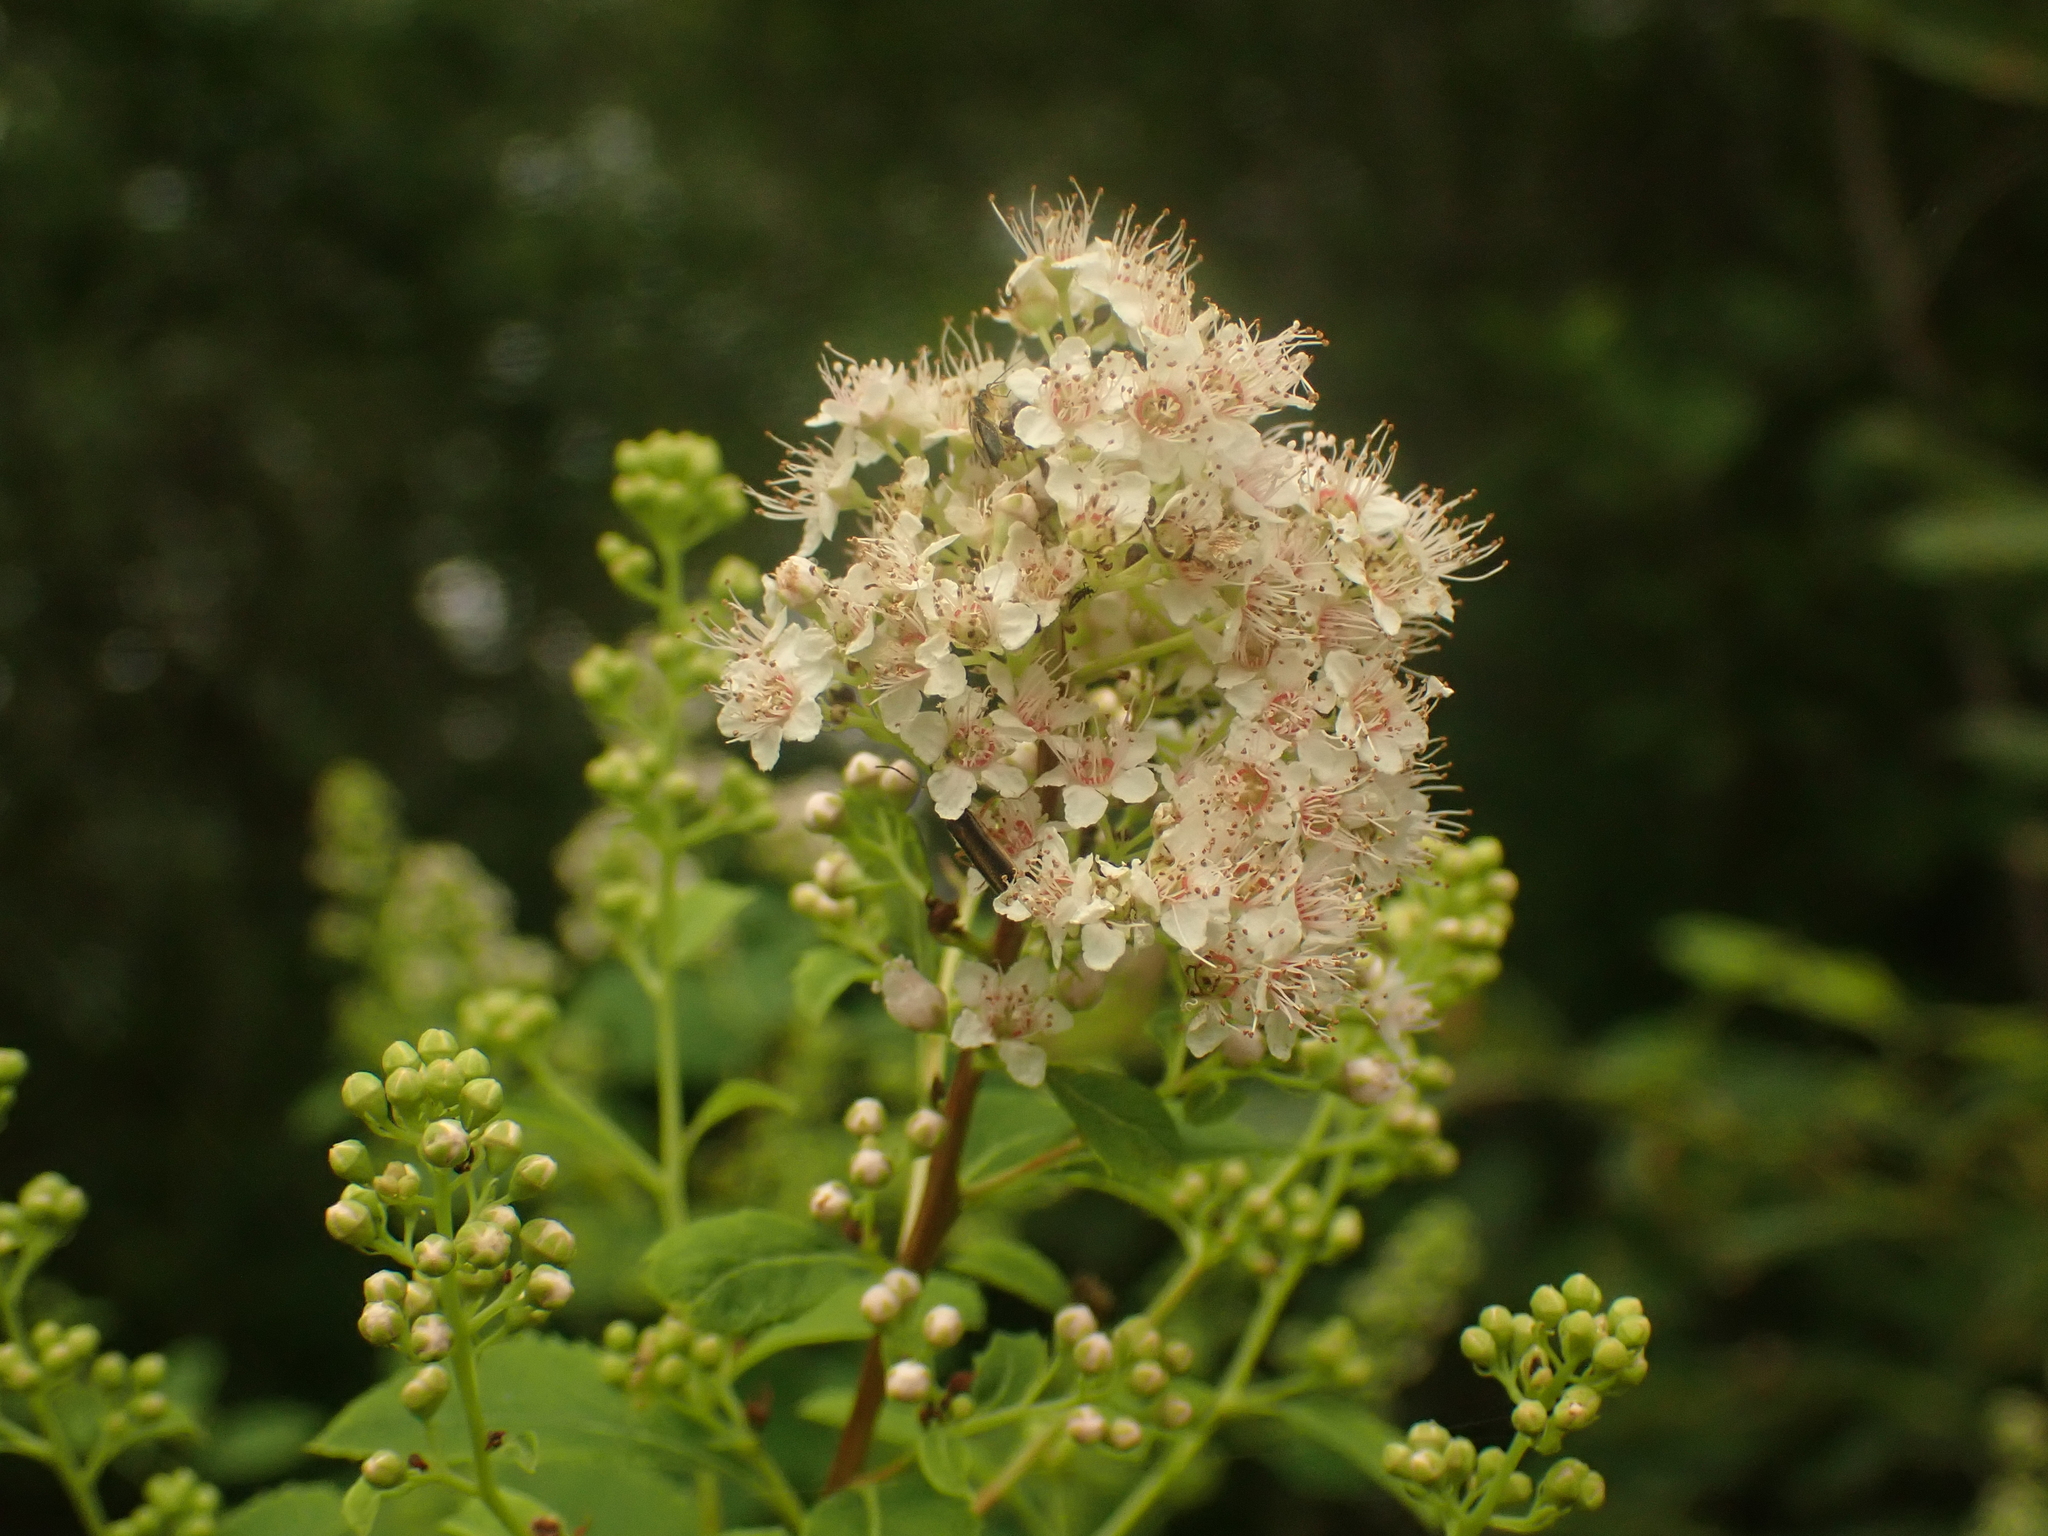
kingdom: Plantae
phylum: Tracheophyta
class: Magnoliopsida
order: Rosales
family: Rosaceae
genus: Spiraea
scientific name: Spiraea alba
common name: Pale bridewort
